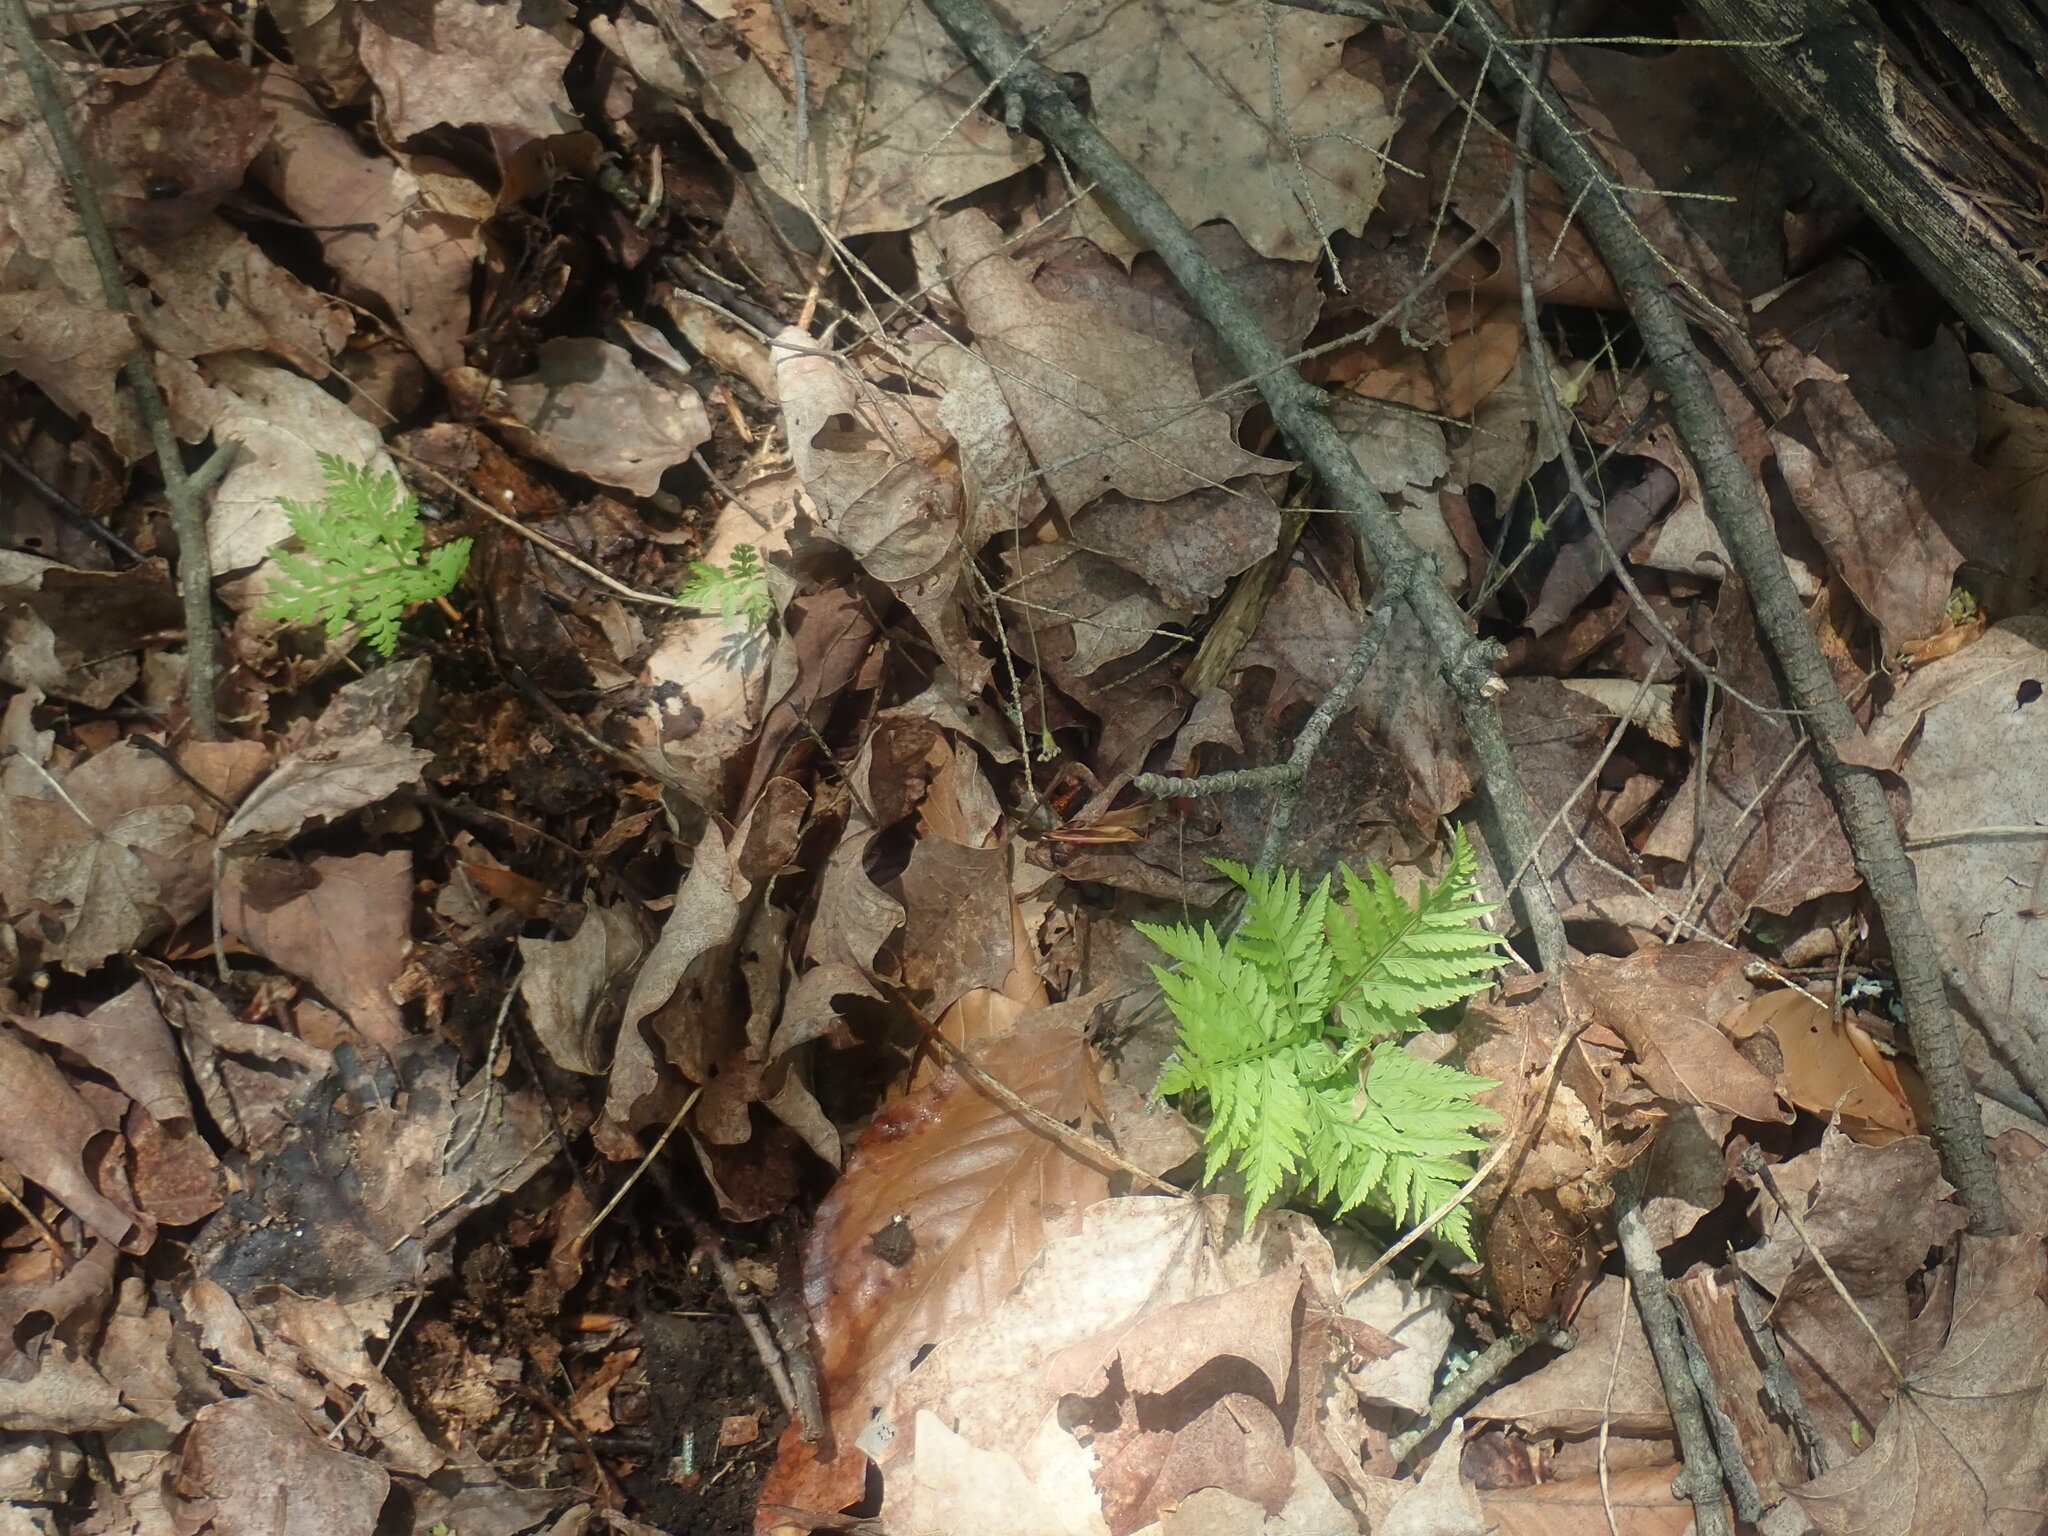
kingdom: Plantae
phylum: Tracheophyta
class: Polypodiopsida
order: Ophioglossales
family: Ophioglossaceae
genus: Botrypus
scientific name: Botrypus virginianus
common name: Common grapefern
